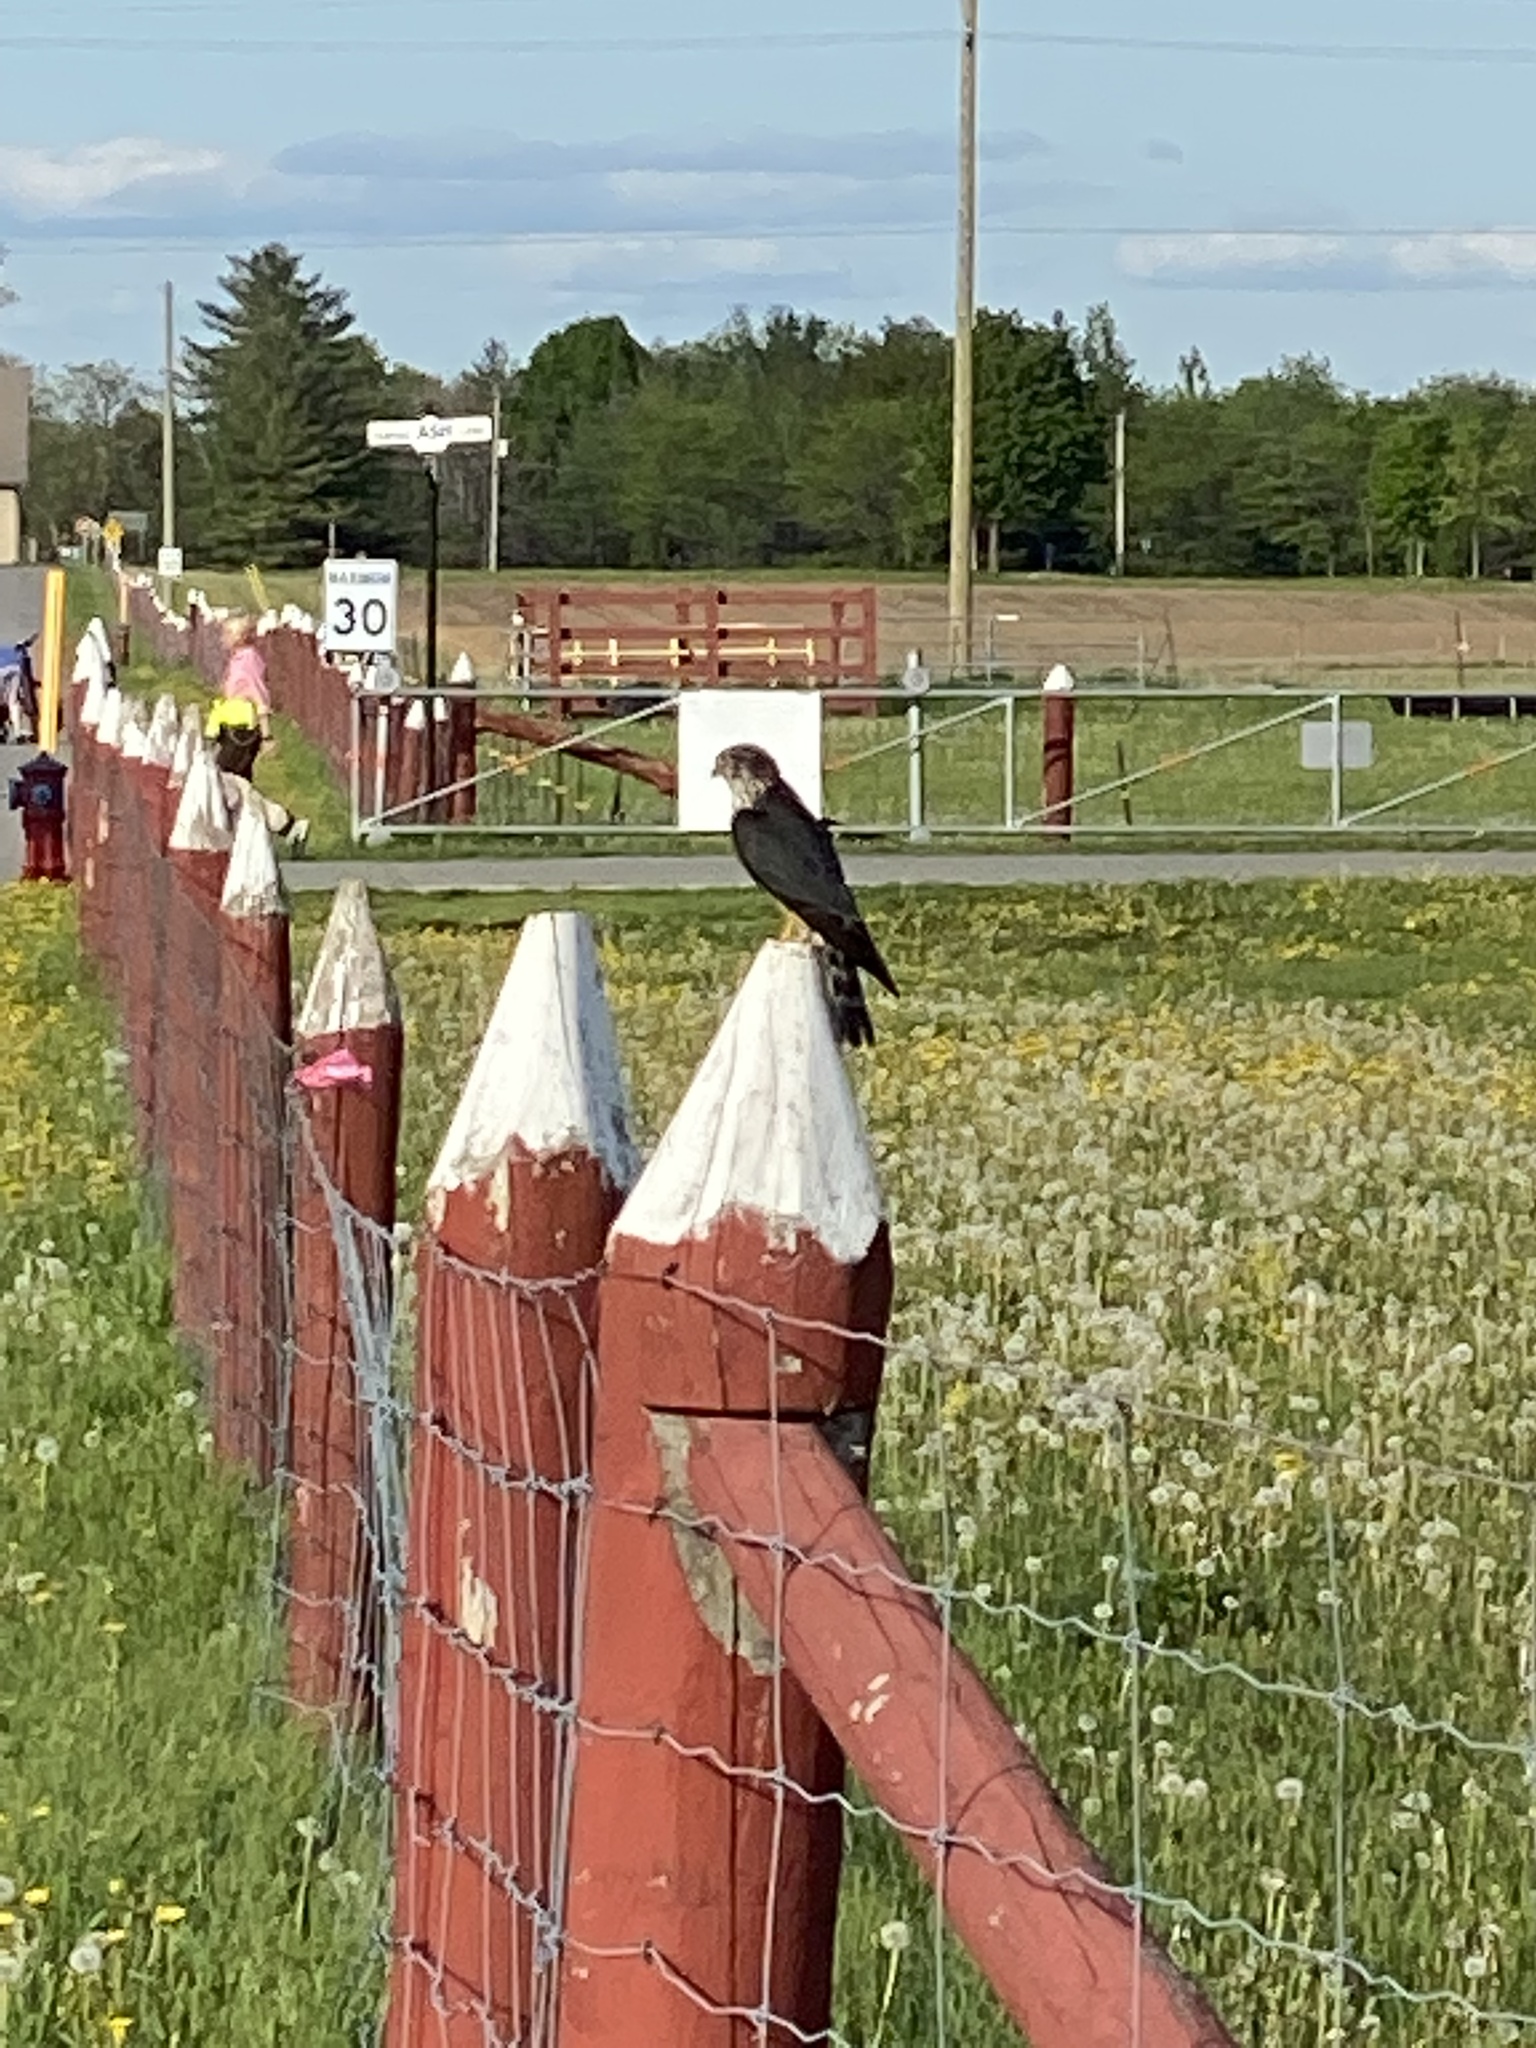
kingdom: Animalia
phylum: Chordata
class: Aves
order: Falconiformes
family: Falconidae
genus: Falco
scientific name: Falco columbarius
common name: Merlin
